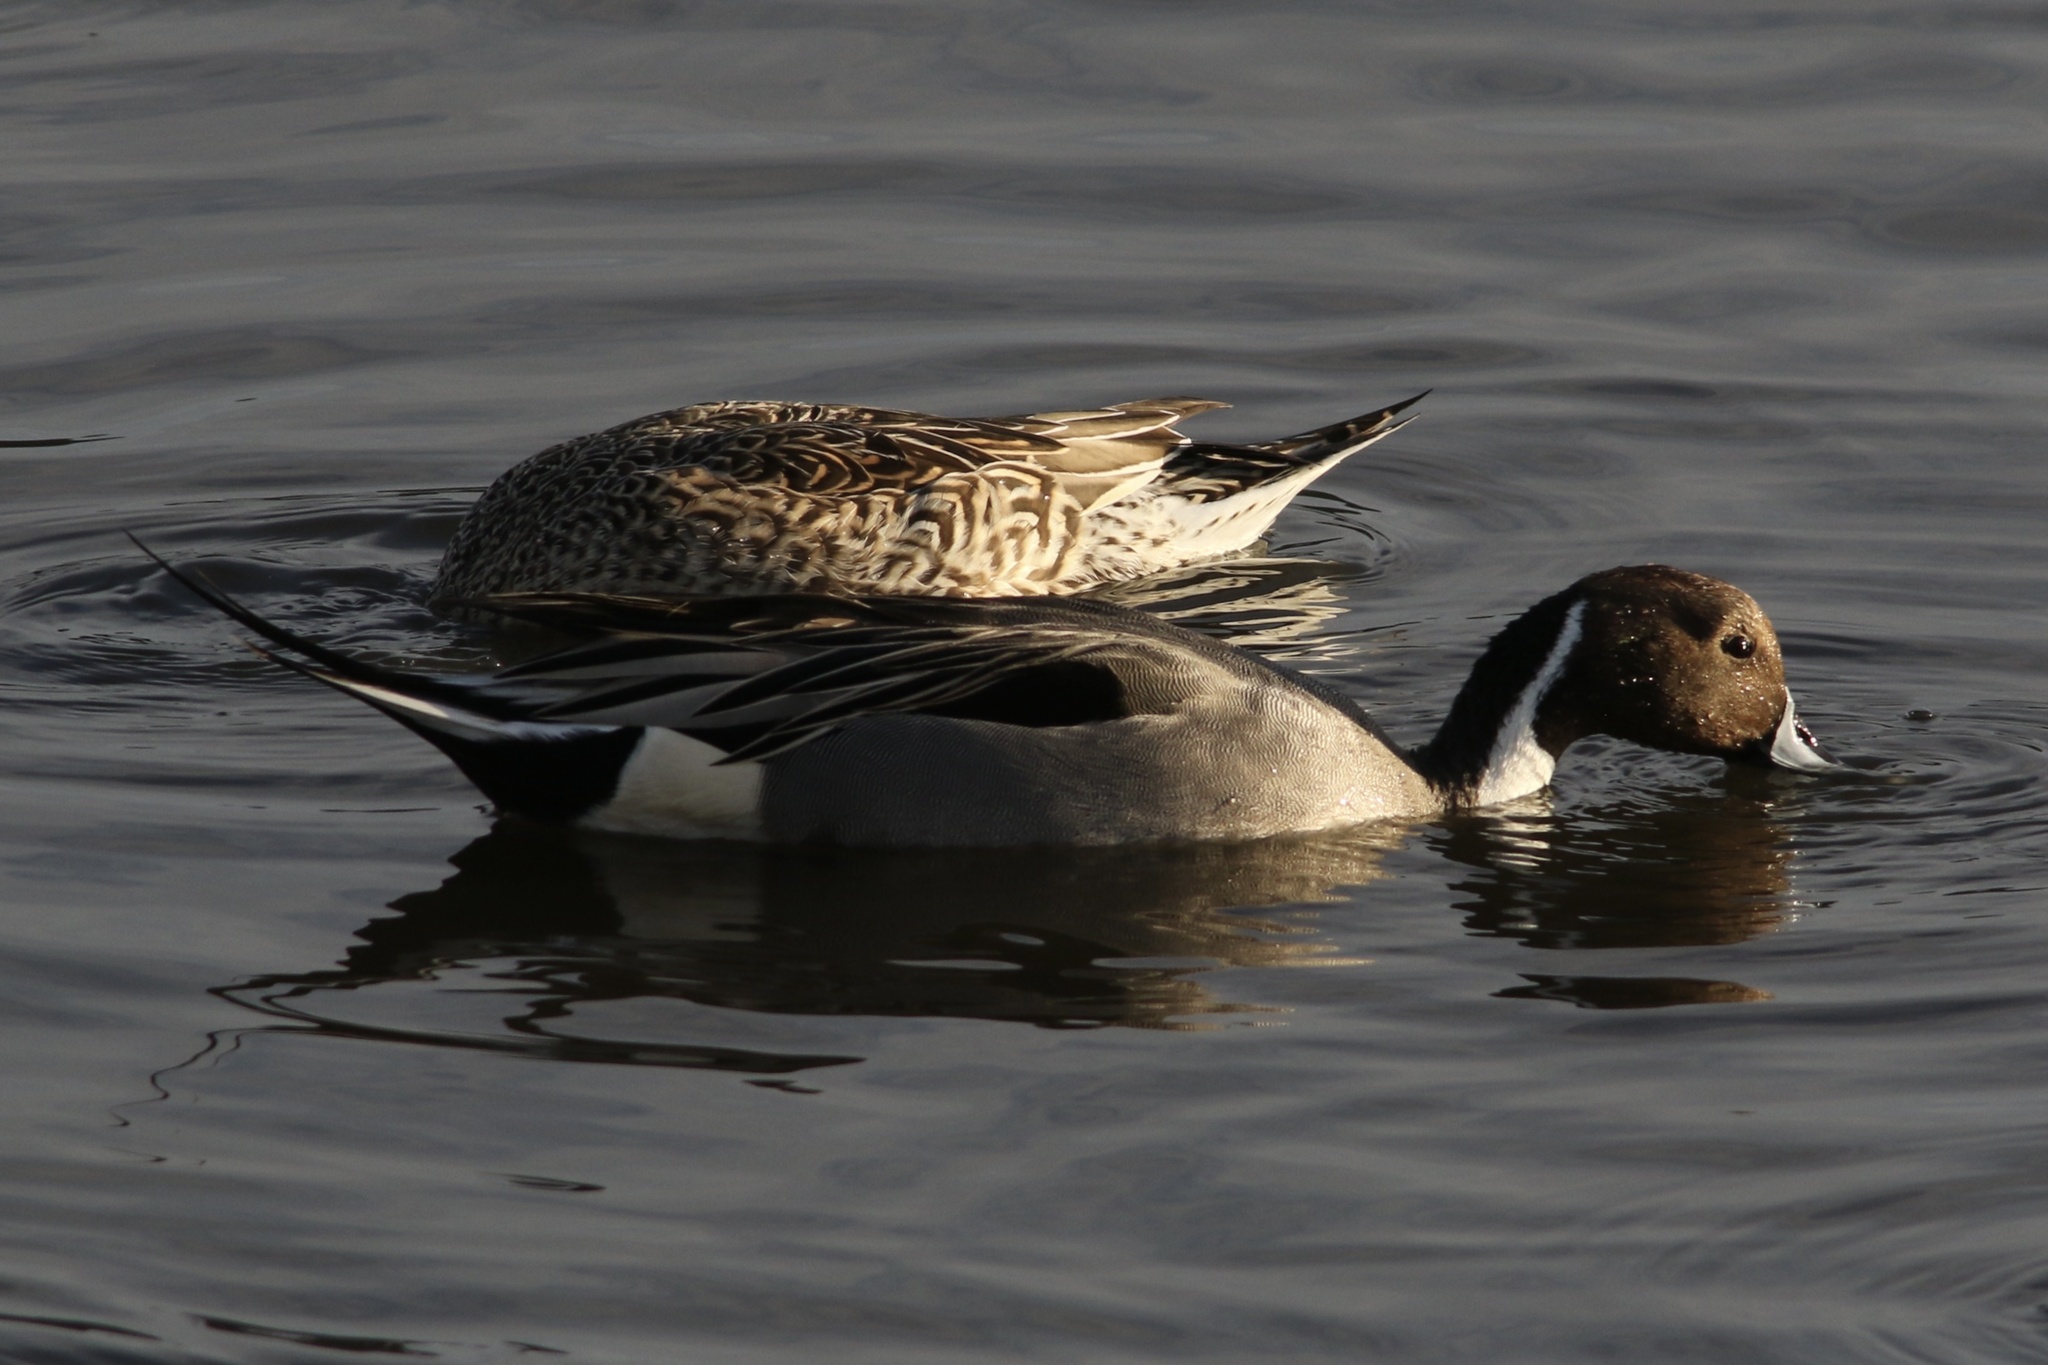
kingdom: Animalia
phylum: Chordata
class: Aves
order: Anseriformes
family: Anatidae
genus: Anas
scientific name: Anas acuta
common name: Northern pintail
